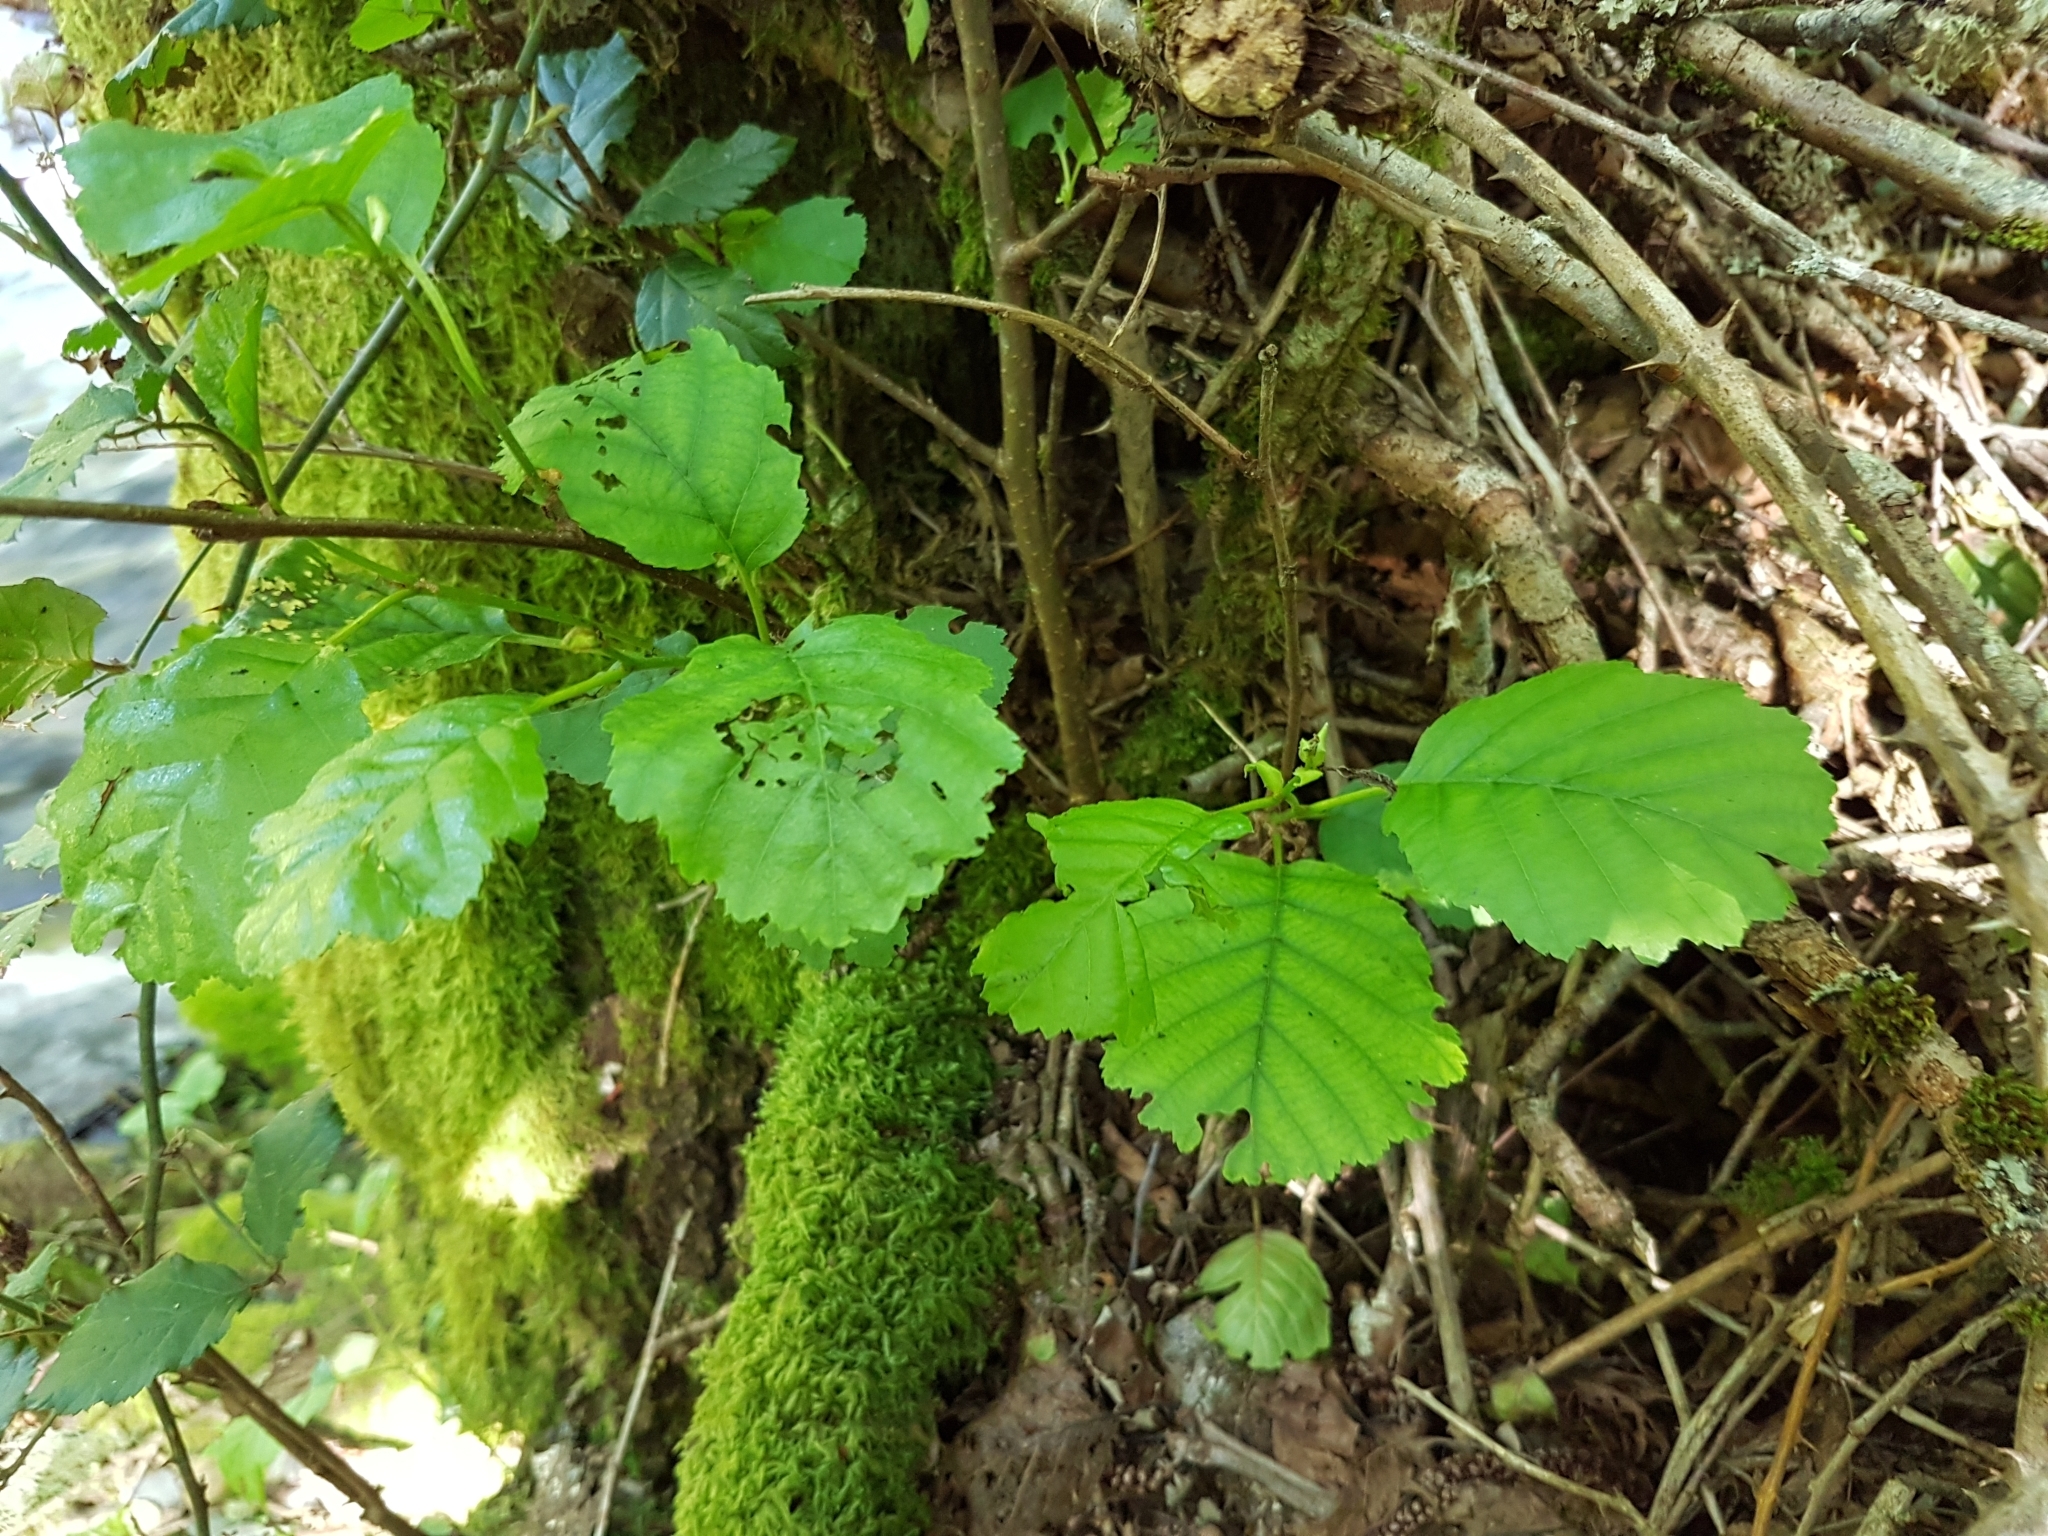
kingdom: Plantae
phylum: Tracheophyta
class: Magnoliopsida
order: Fagales
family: Betulaceae
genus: Alnus
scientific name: Alnus lusitanica
